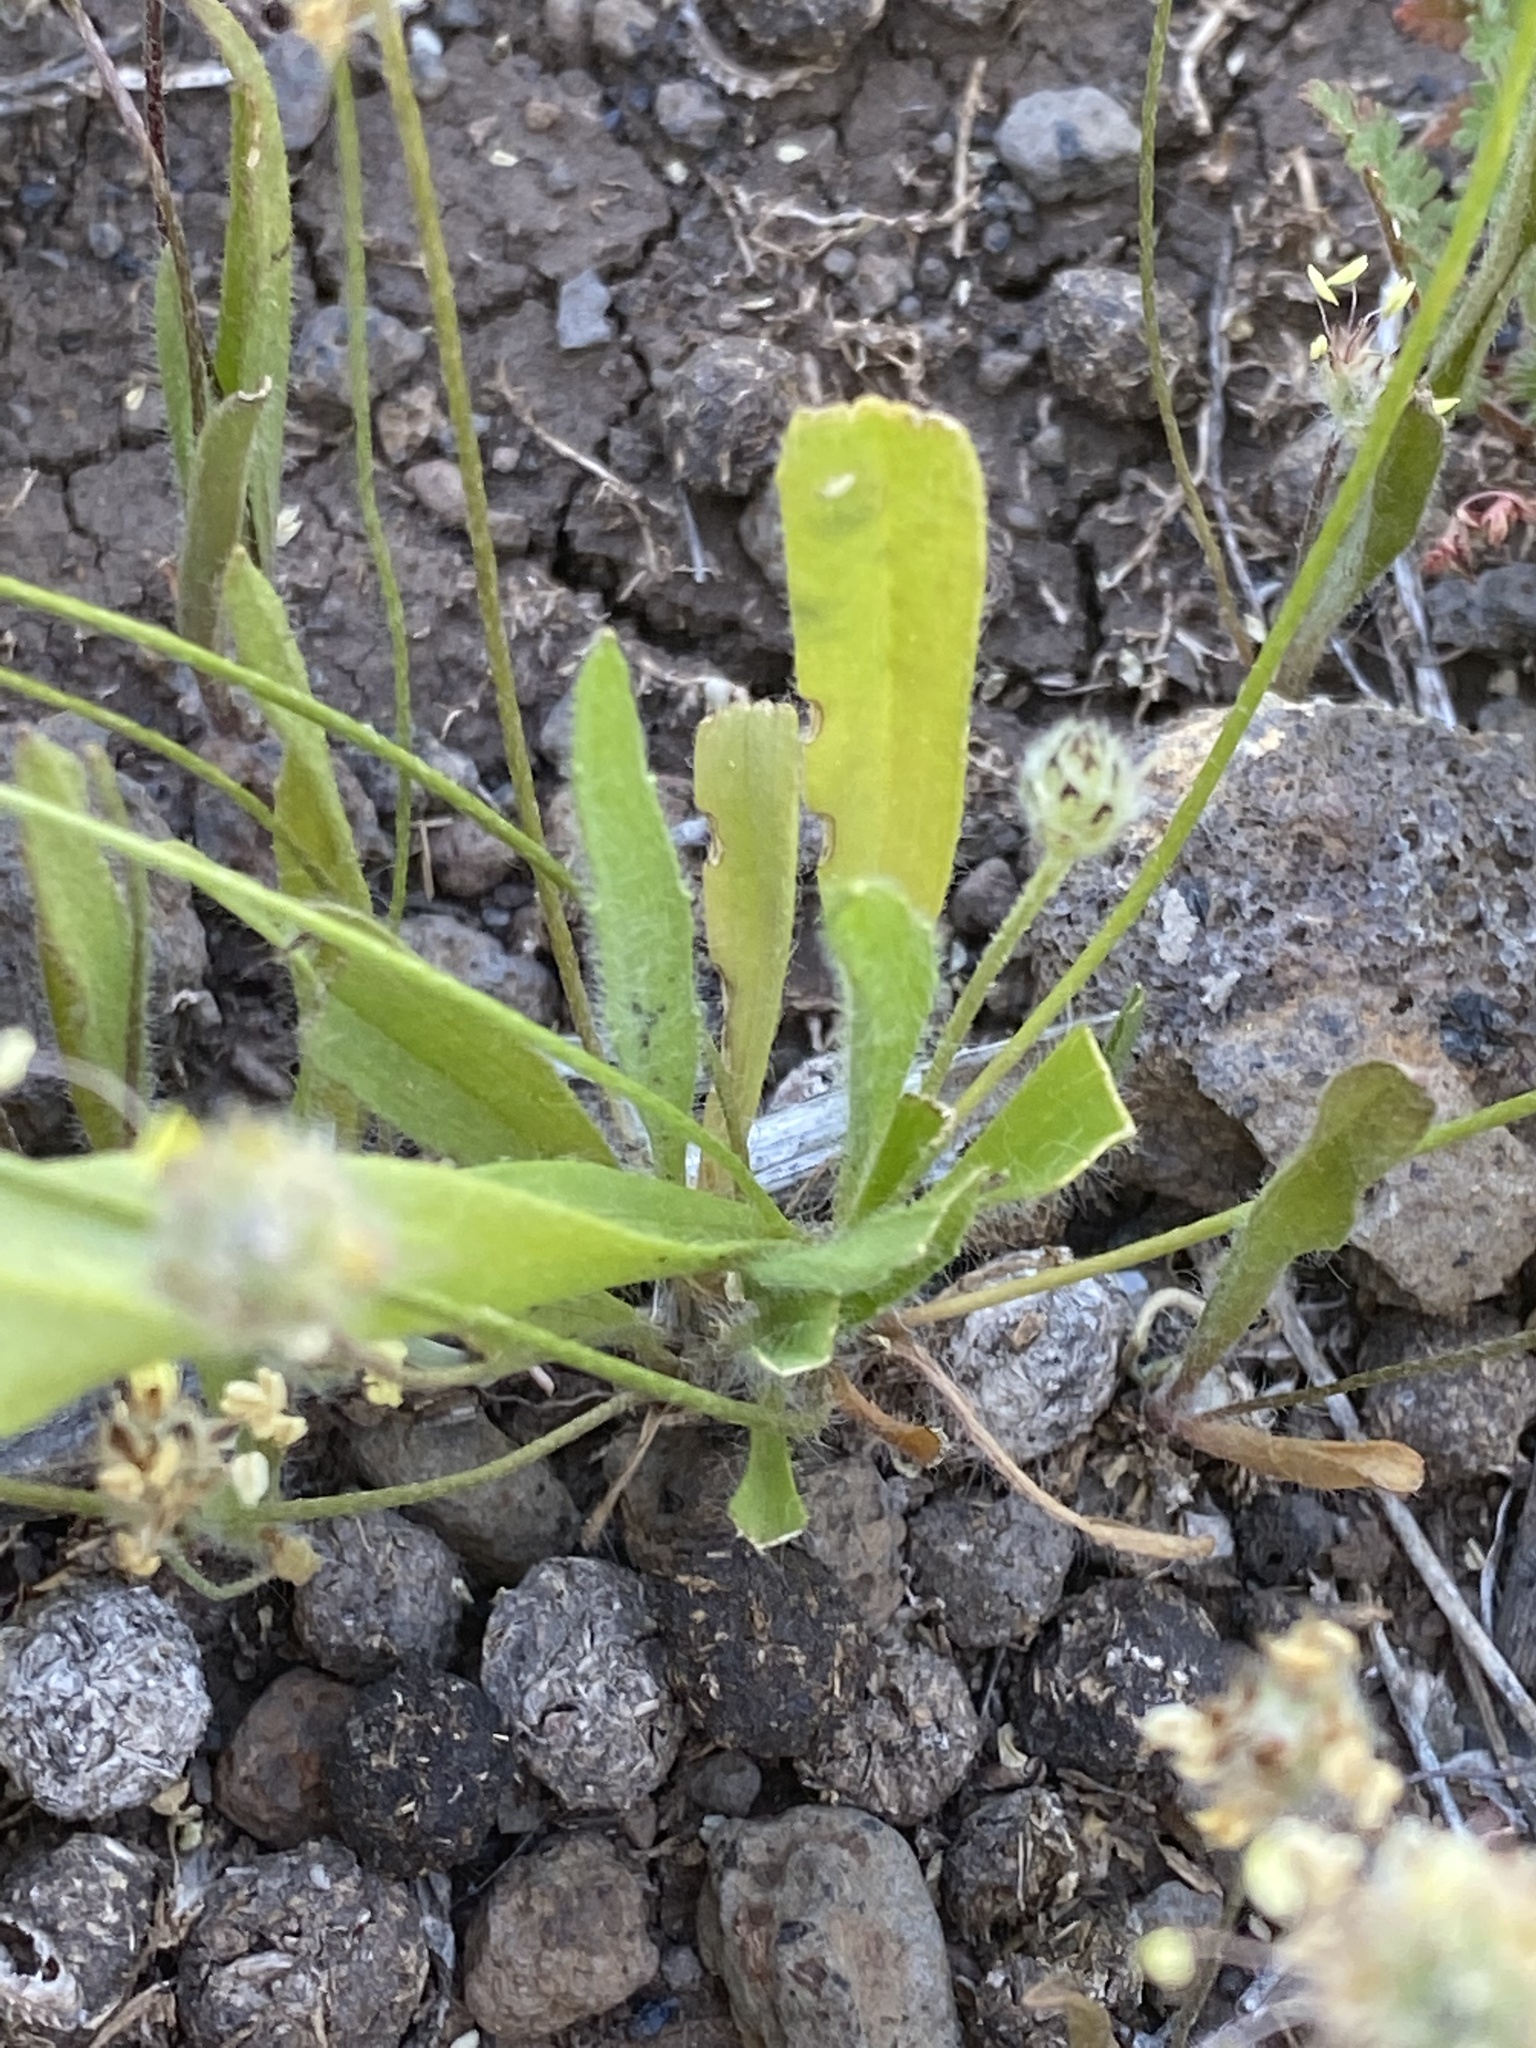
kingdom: Plantae
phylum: Tracheophyta
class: Magnoliopsida
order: Lamiales
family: Plantaginaceae
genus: Plantago
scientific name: Plantago lagopus
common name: Hare-foot plantain
